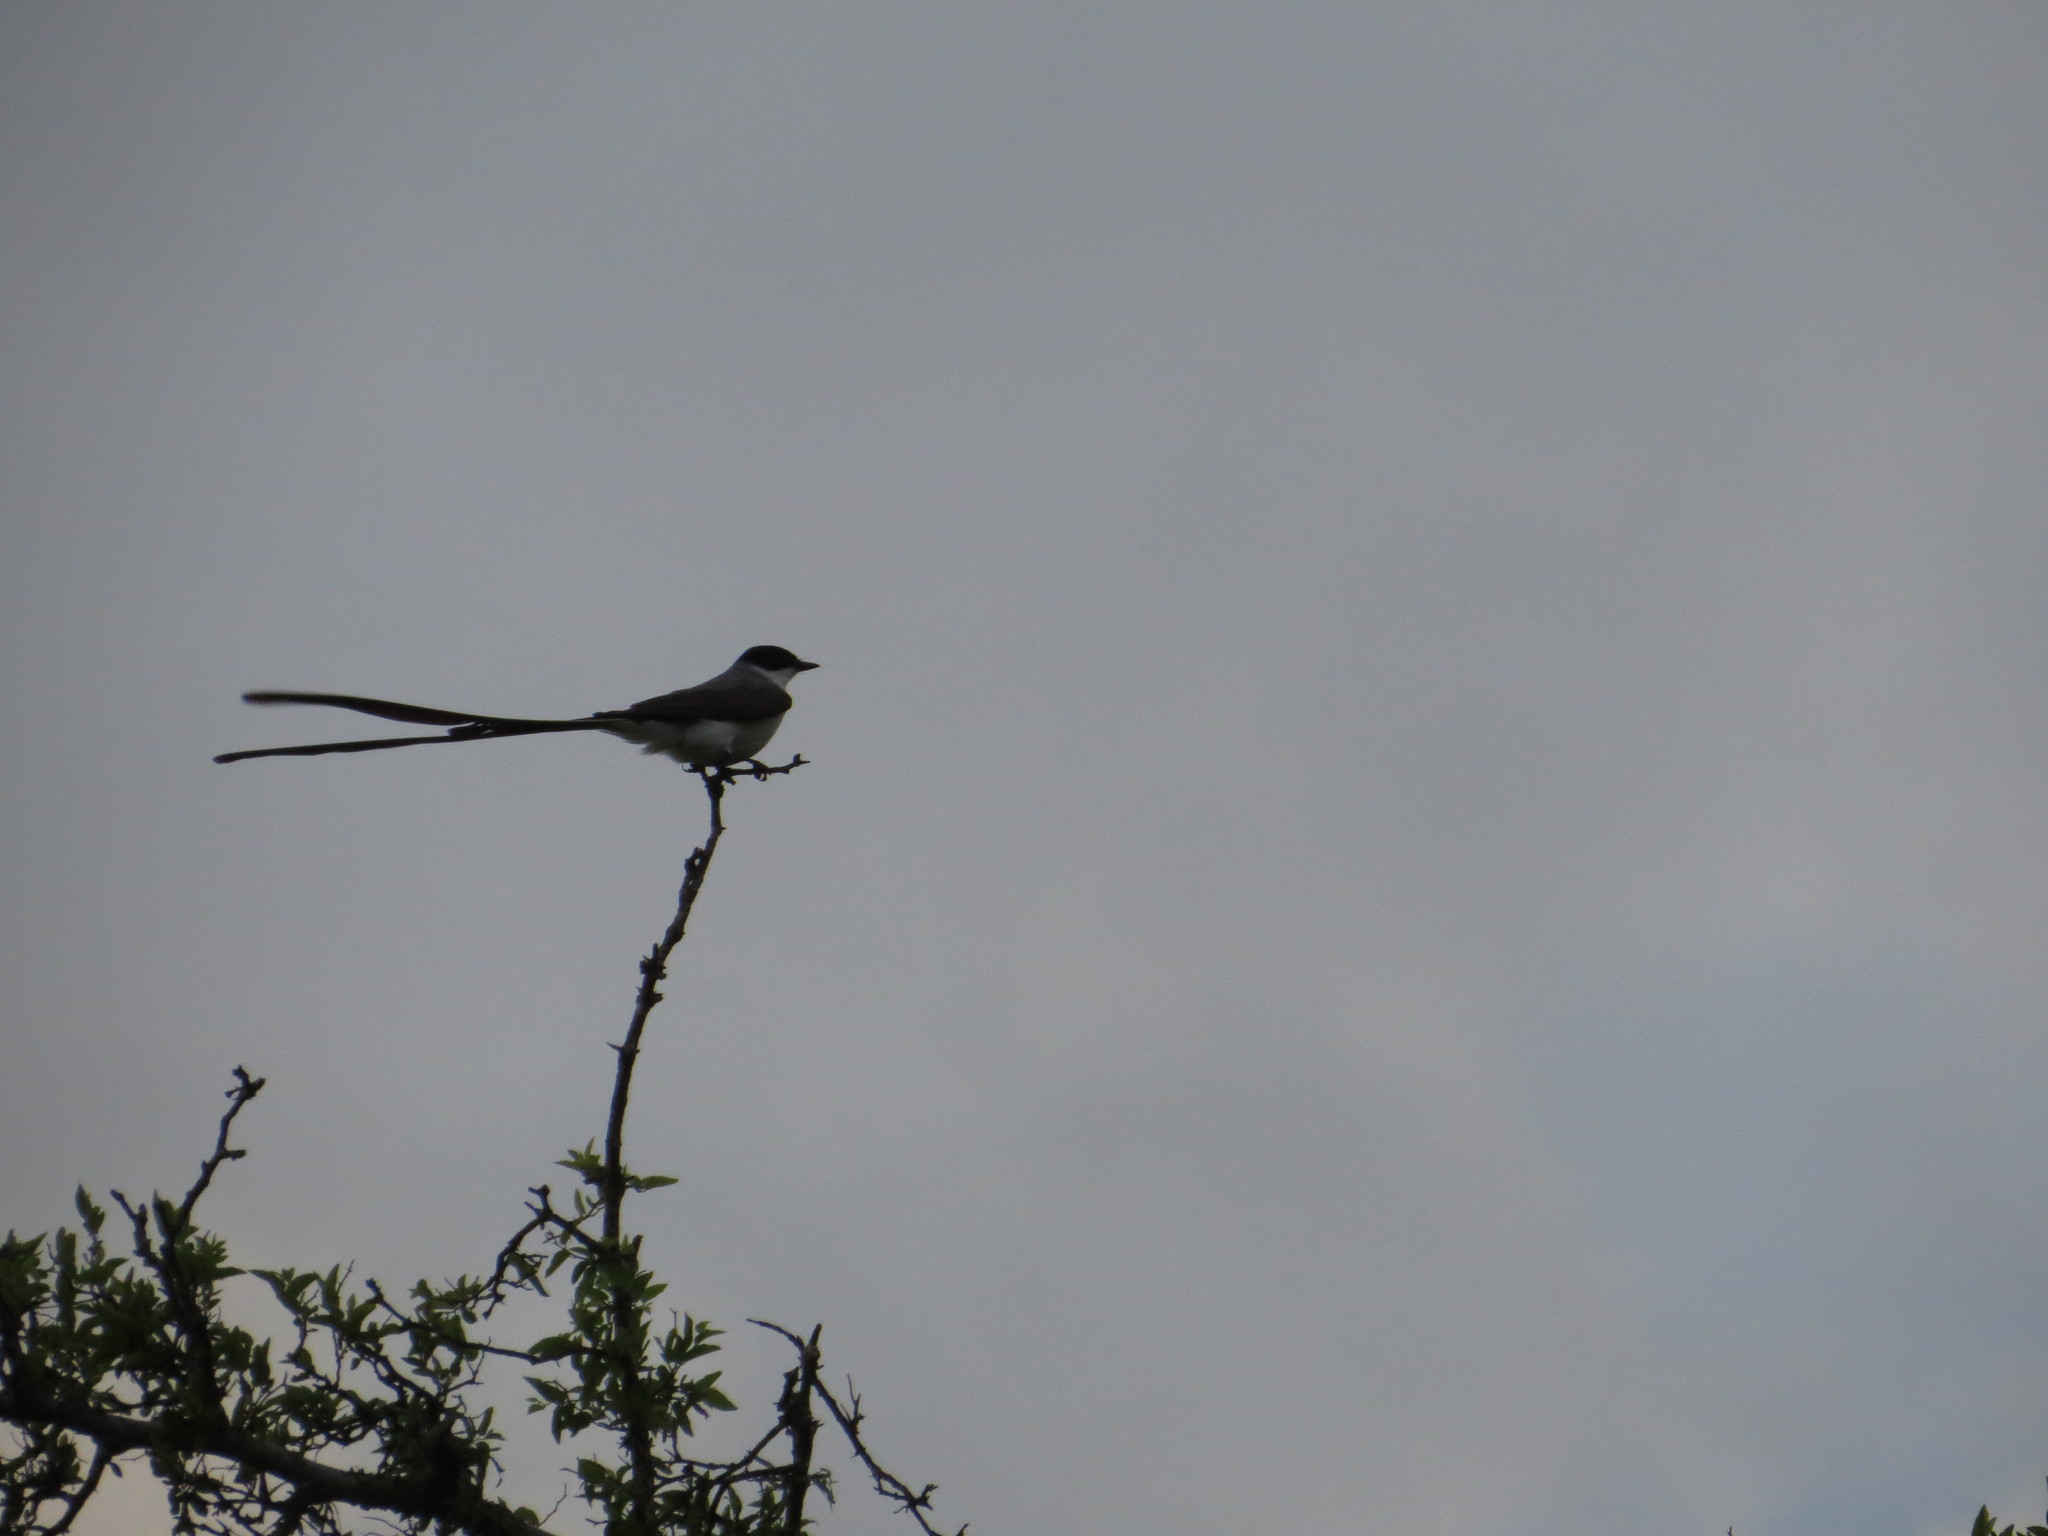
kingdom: Animalia
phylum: Chordata
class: Aves
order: Passeriformes
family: Tyrannidae
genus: Tyrannus
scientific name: Tyrannus savana
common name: Fork-tailed flycatcher
